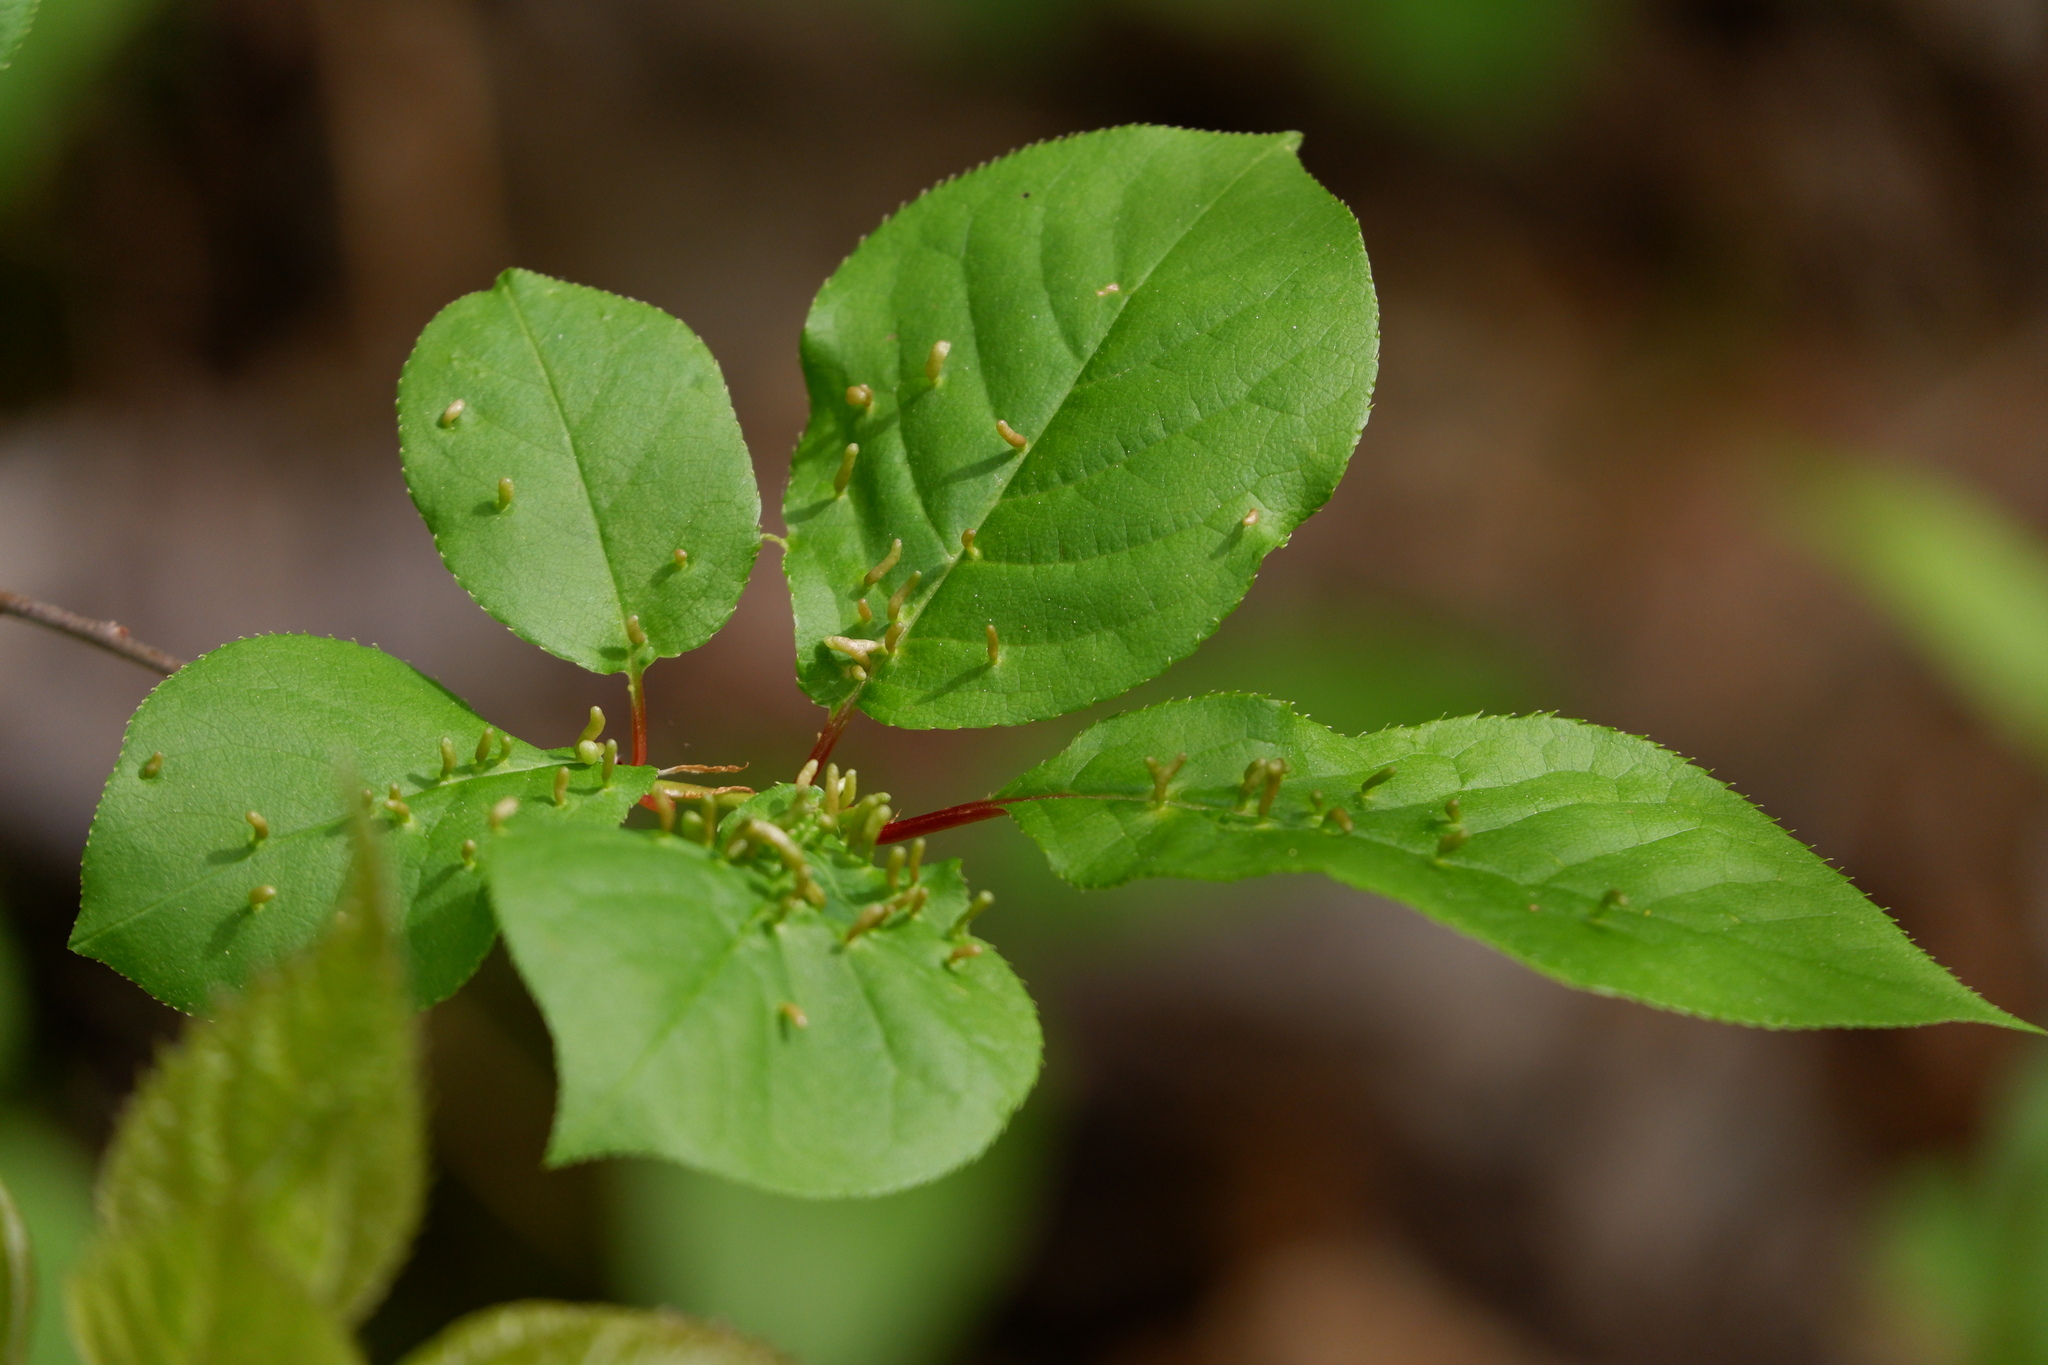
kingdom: Animalia
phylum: Arthropoda
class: Arachnida
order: Trombidiformes
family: Eriophyidae
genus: Eriophyes
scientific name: Eriophyes emarginatae
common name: Plum leaf gall mite
